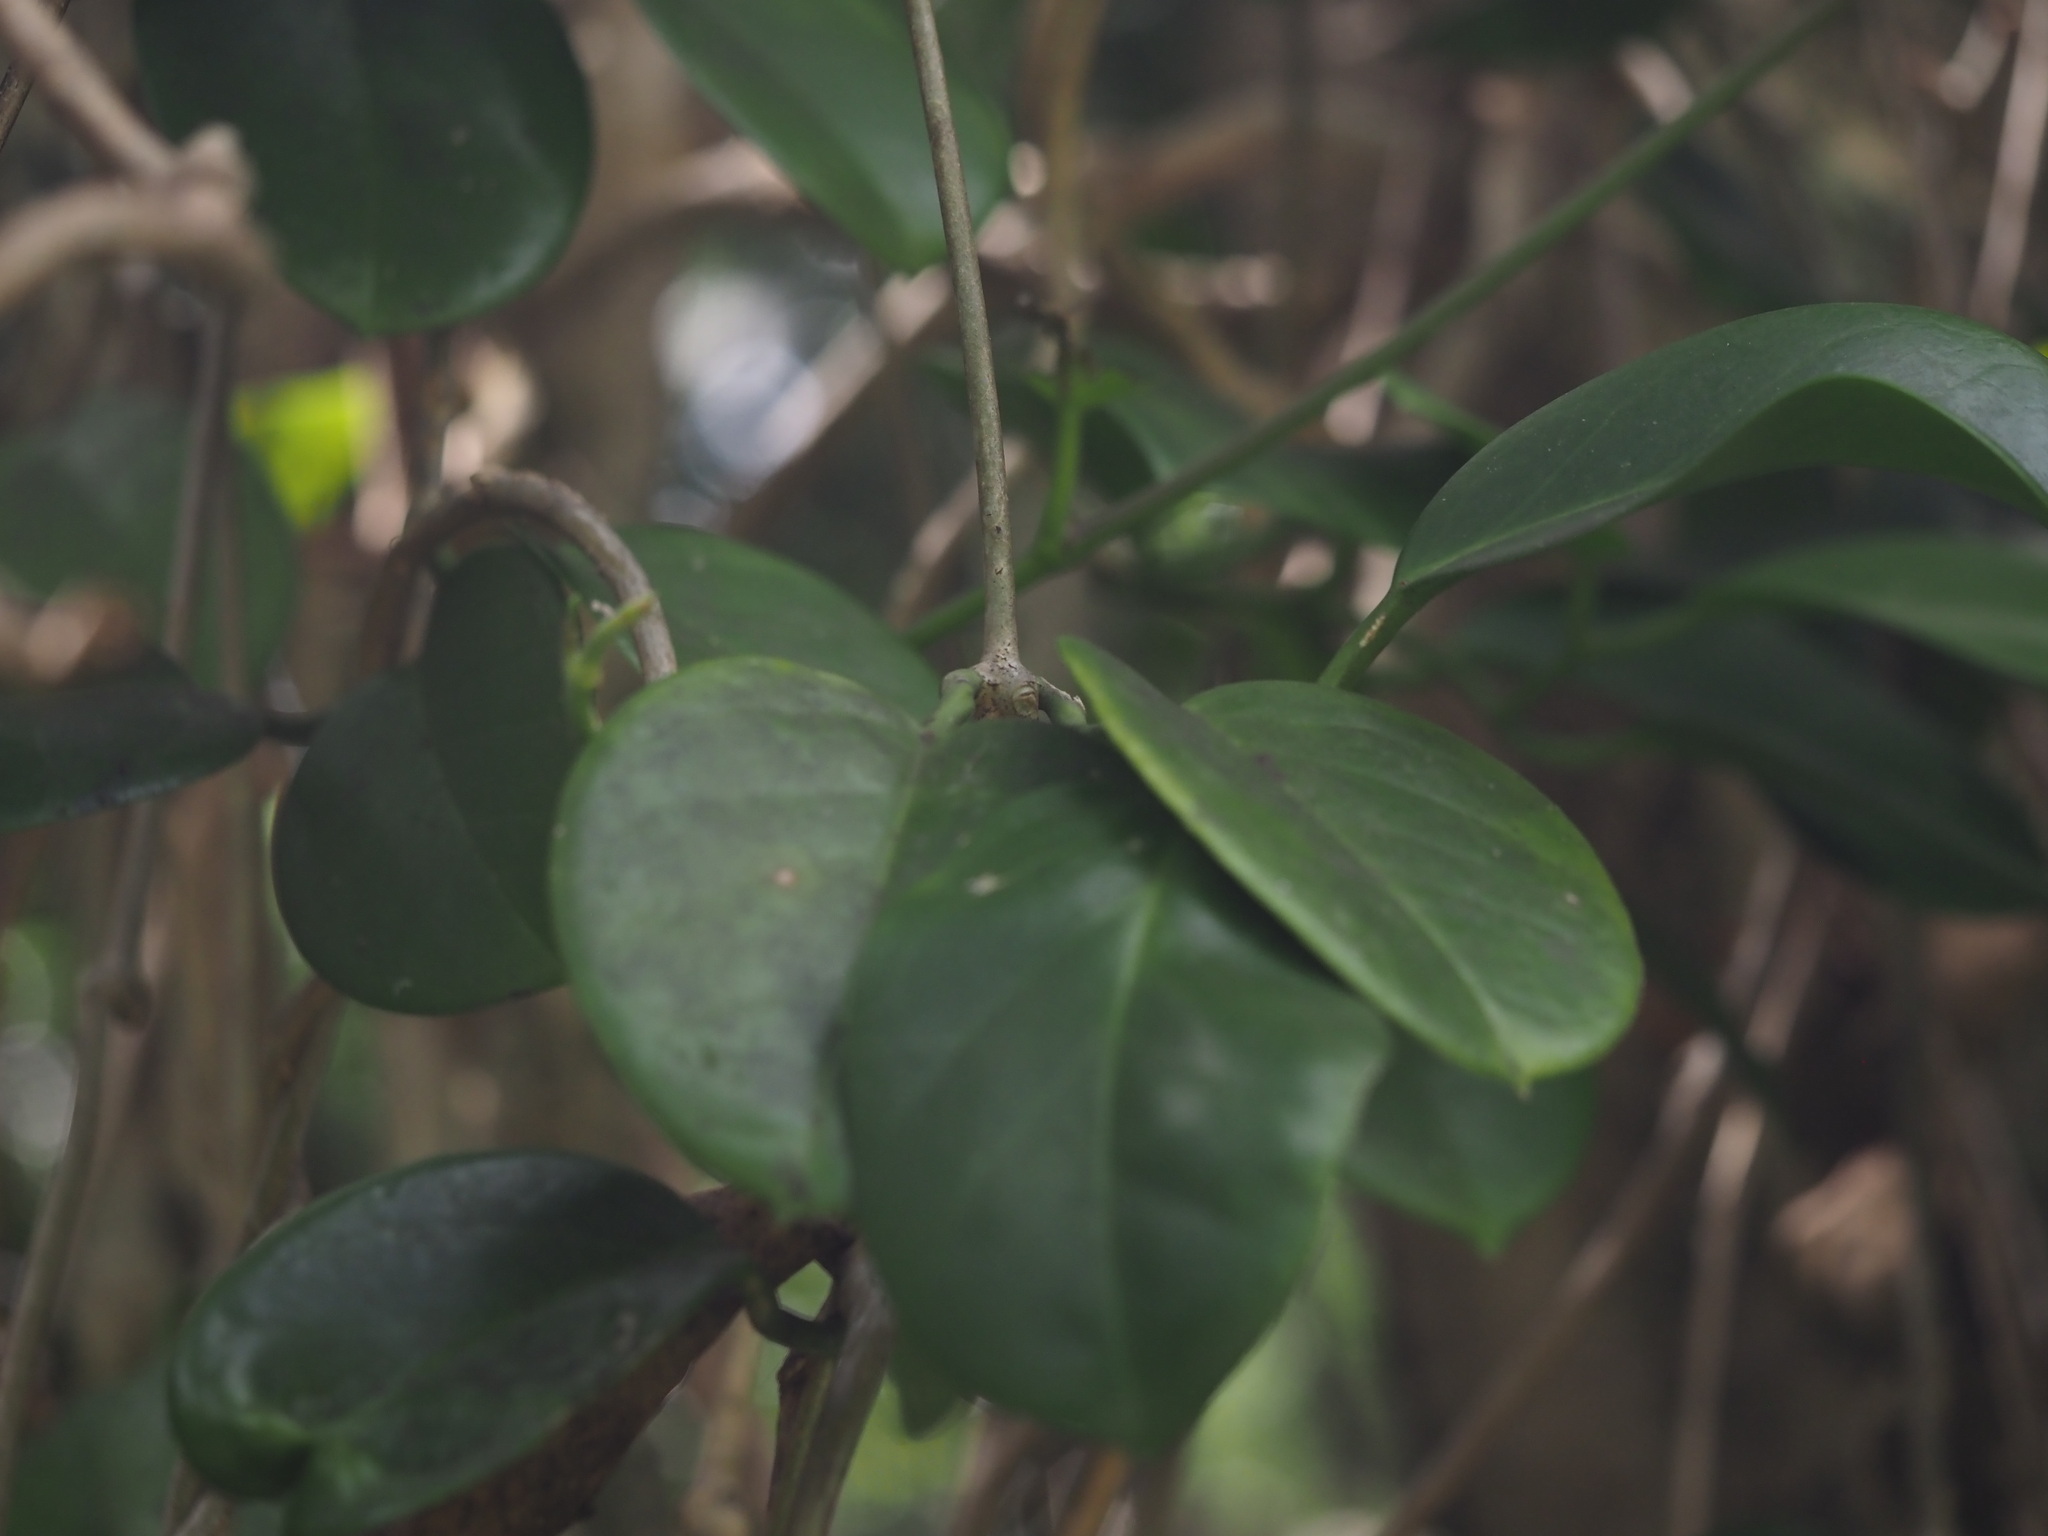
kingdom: Plantae
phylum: Tracheophyta
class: Magnoliopsida
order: Gentianales
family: Apocynaceae
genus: Hoya
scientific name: Hoya australis
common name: Wax flower
